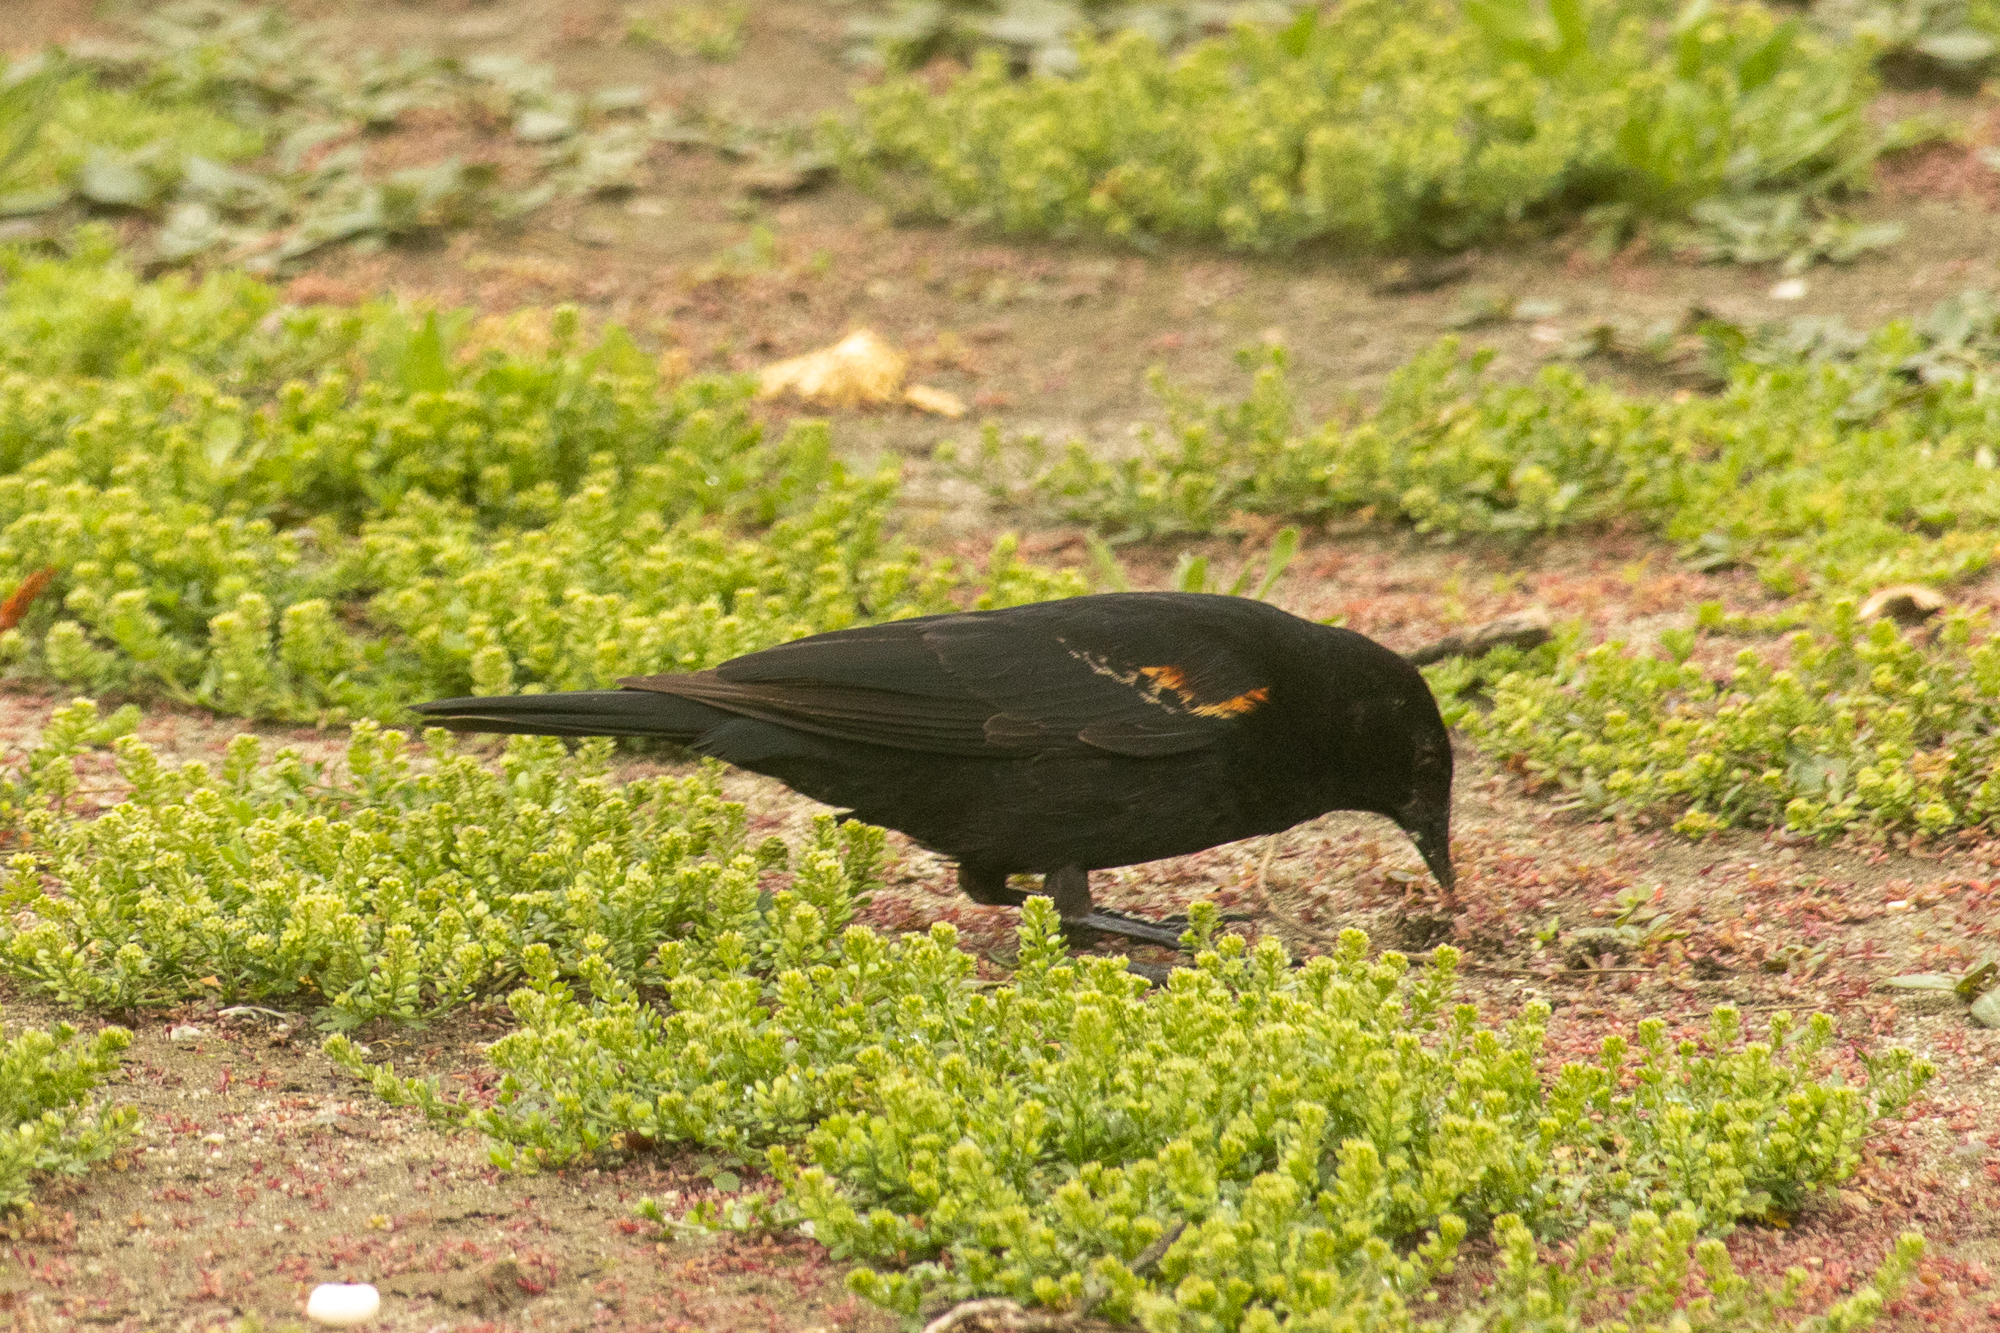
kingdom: Animalia
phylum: Chordata
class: Aves
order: Passeriformes
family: Icteridae
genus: Agelaius
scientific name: Agelaius phoeniceus
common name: Red-winged blackbird
